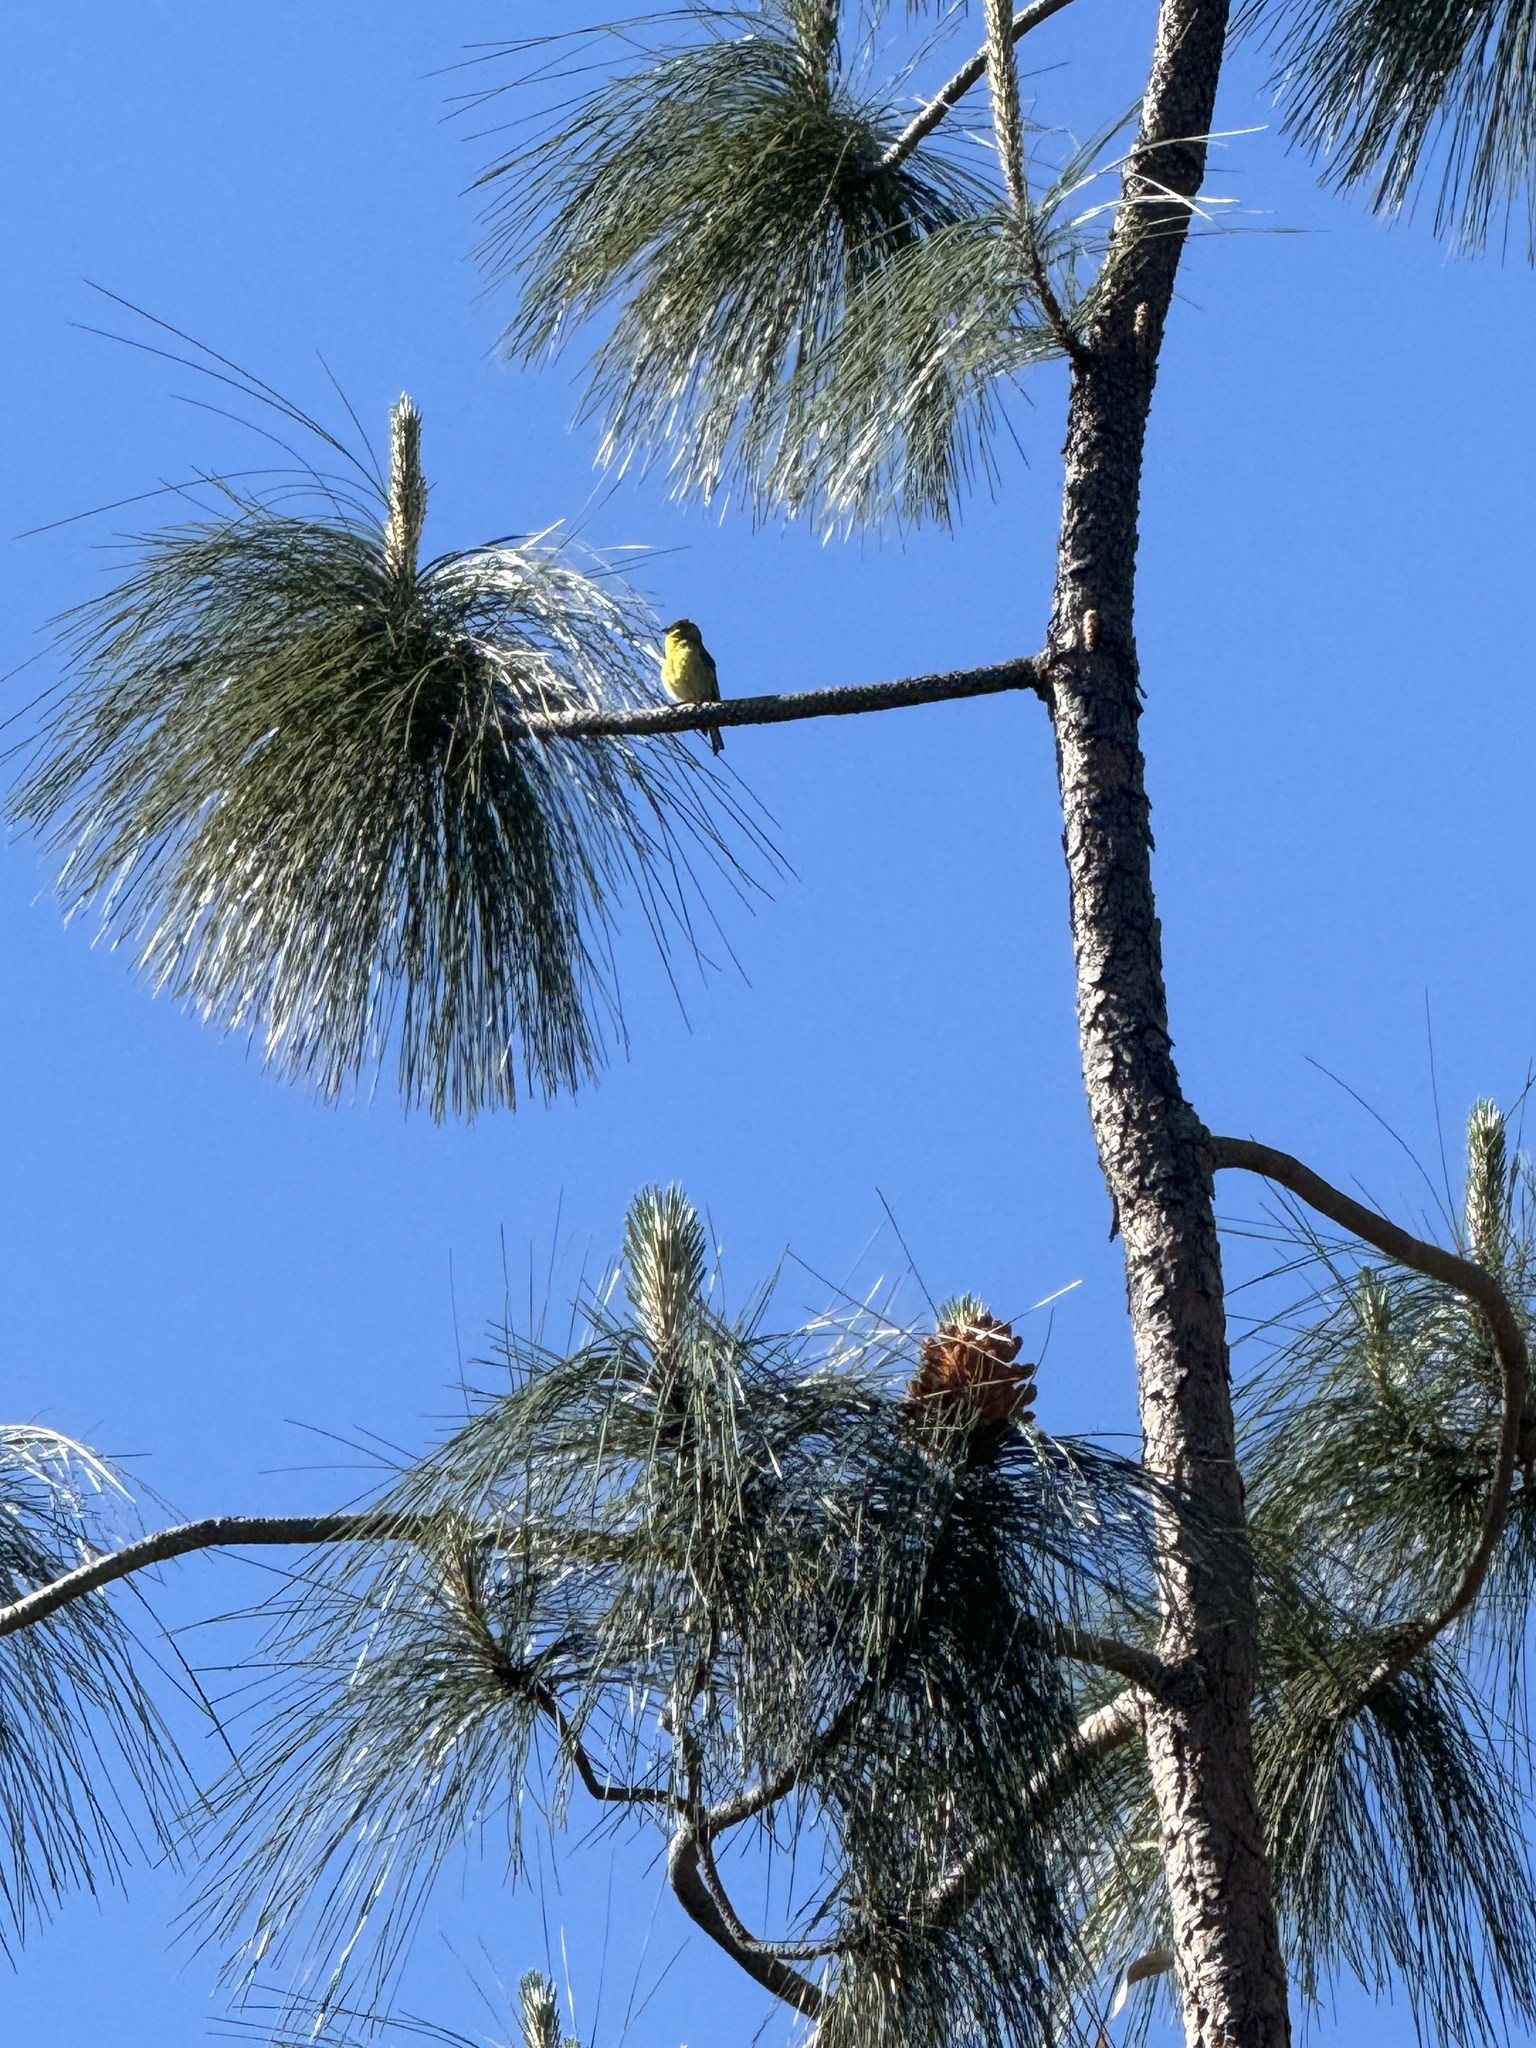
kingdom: Animalia
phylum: Chordata
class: Aves
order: Passeriformes
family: Fringillidae
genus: Spinus
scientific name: Spinus psaltria
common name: Lesser goldfinch
